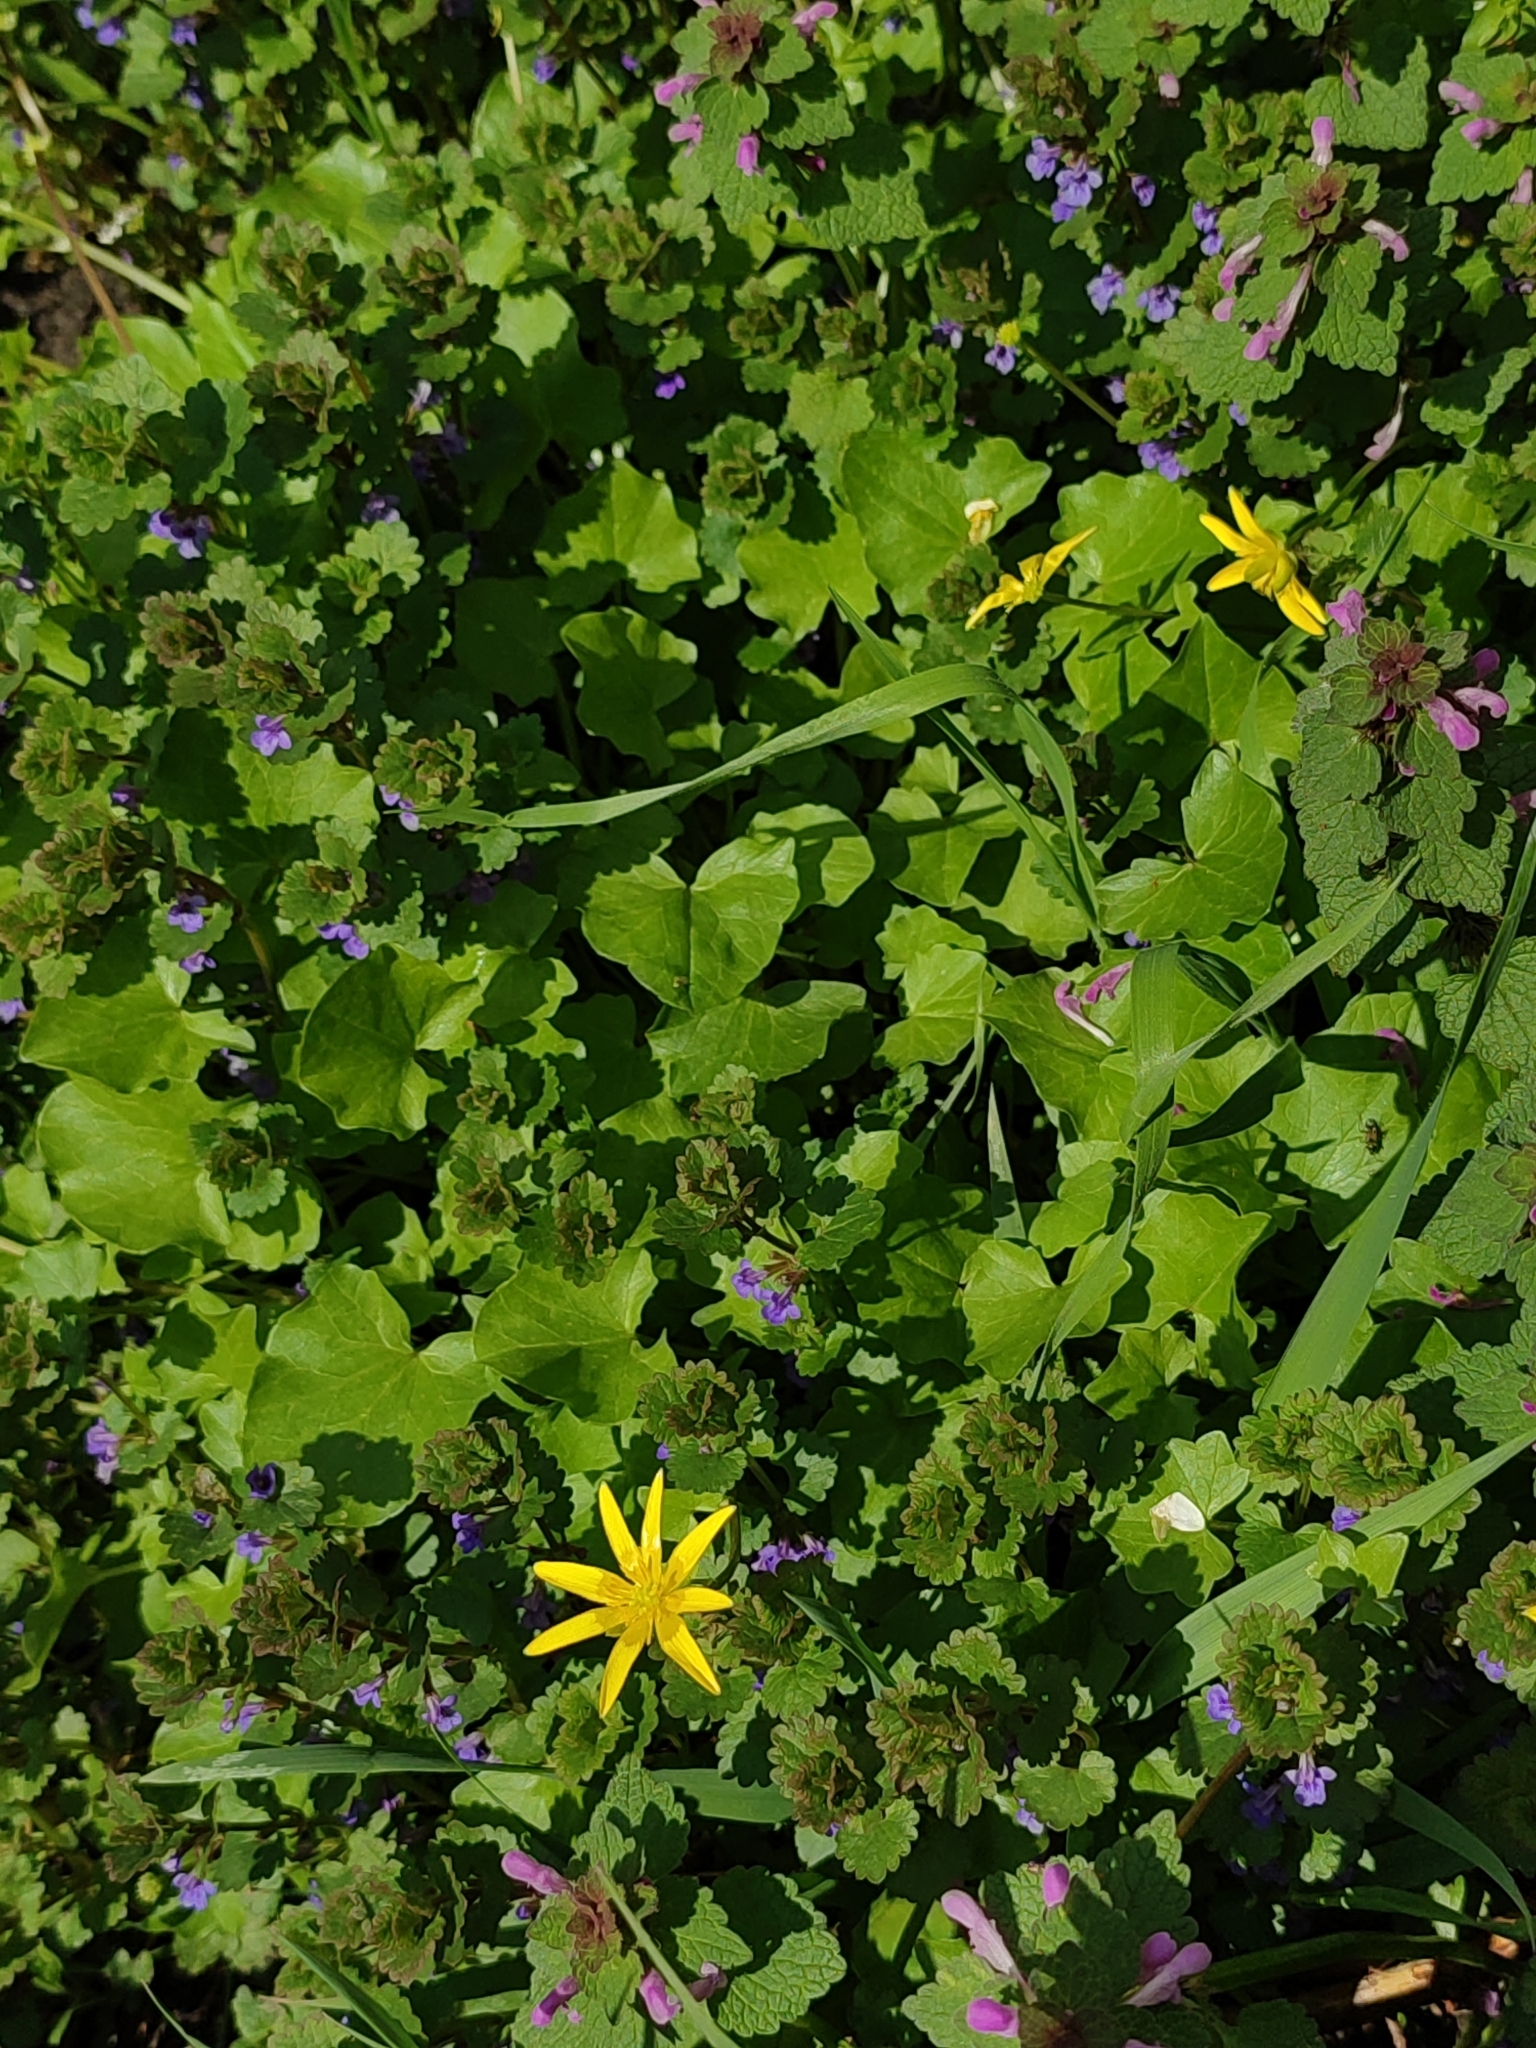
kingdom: Plantae
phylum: Tracheophyta
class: Magnoliopsida
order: Ranunculales
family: Ranunculaceae
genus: Ficaria
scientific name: Ficaria verna
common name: Lesser celandine
